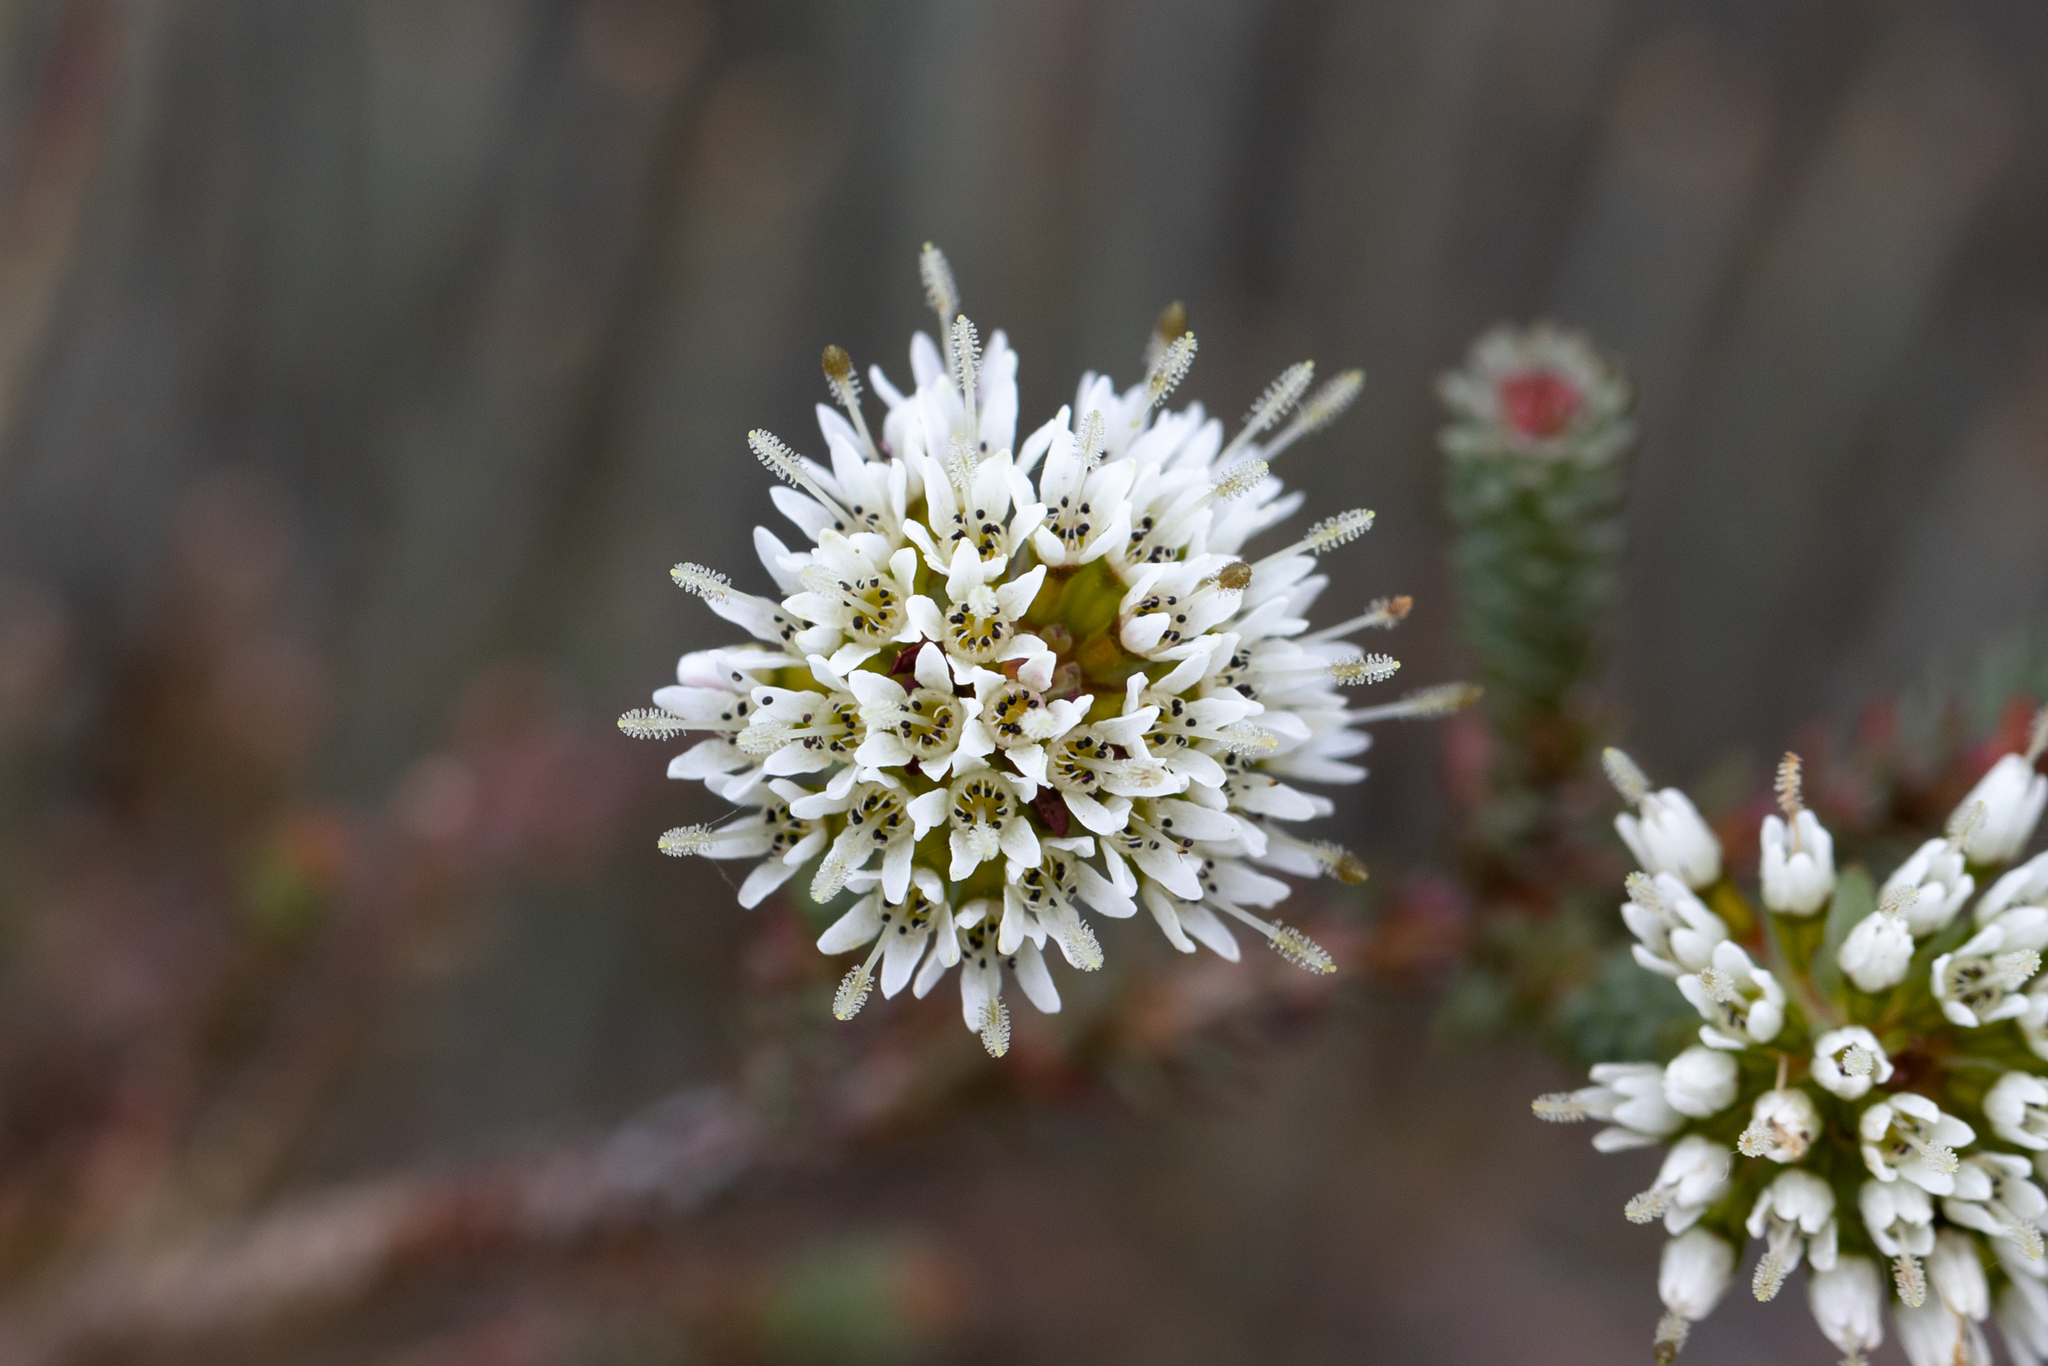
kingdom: Plantae
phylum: Tracheophyta
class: Magnoliopsida
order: Myrtales
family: Myrtaceae
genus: Darwinia
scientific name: Darwinia vestita
